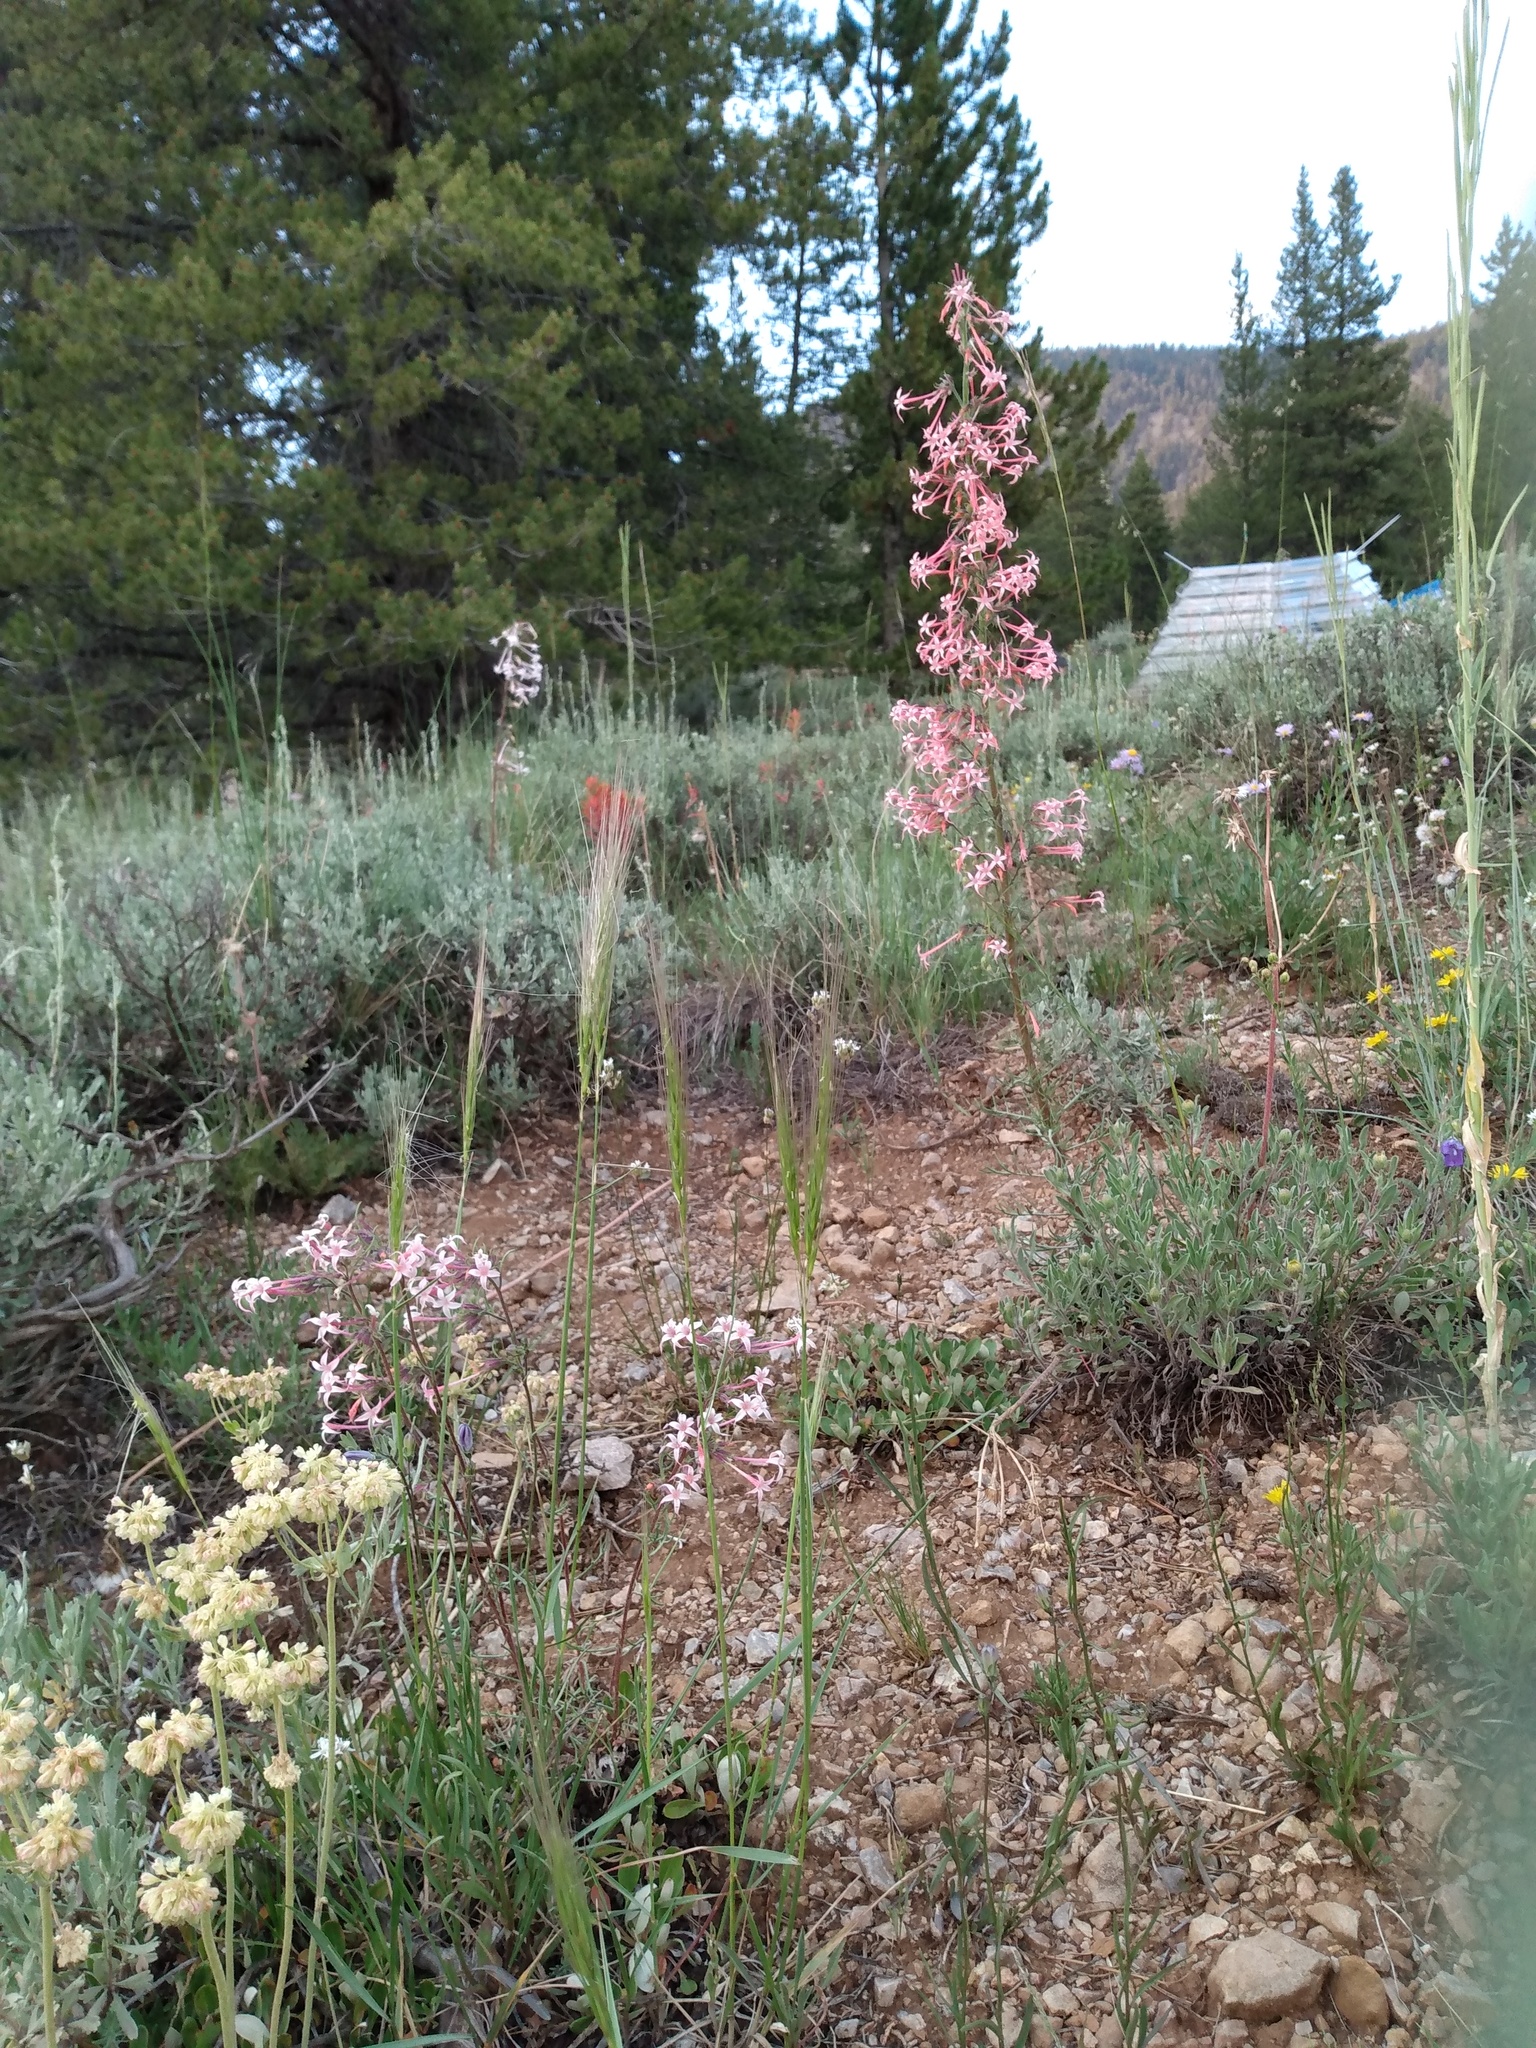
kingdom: Plantae
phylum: Tracheophyta
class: Magnoliopsida
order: Ericales
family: Polemoniaceae
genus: Ipomopsis
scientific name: Ipomopsis tenuituba
